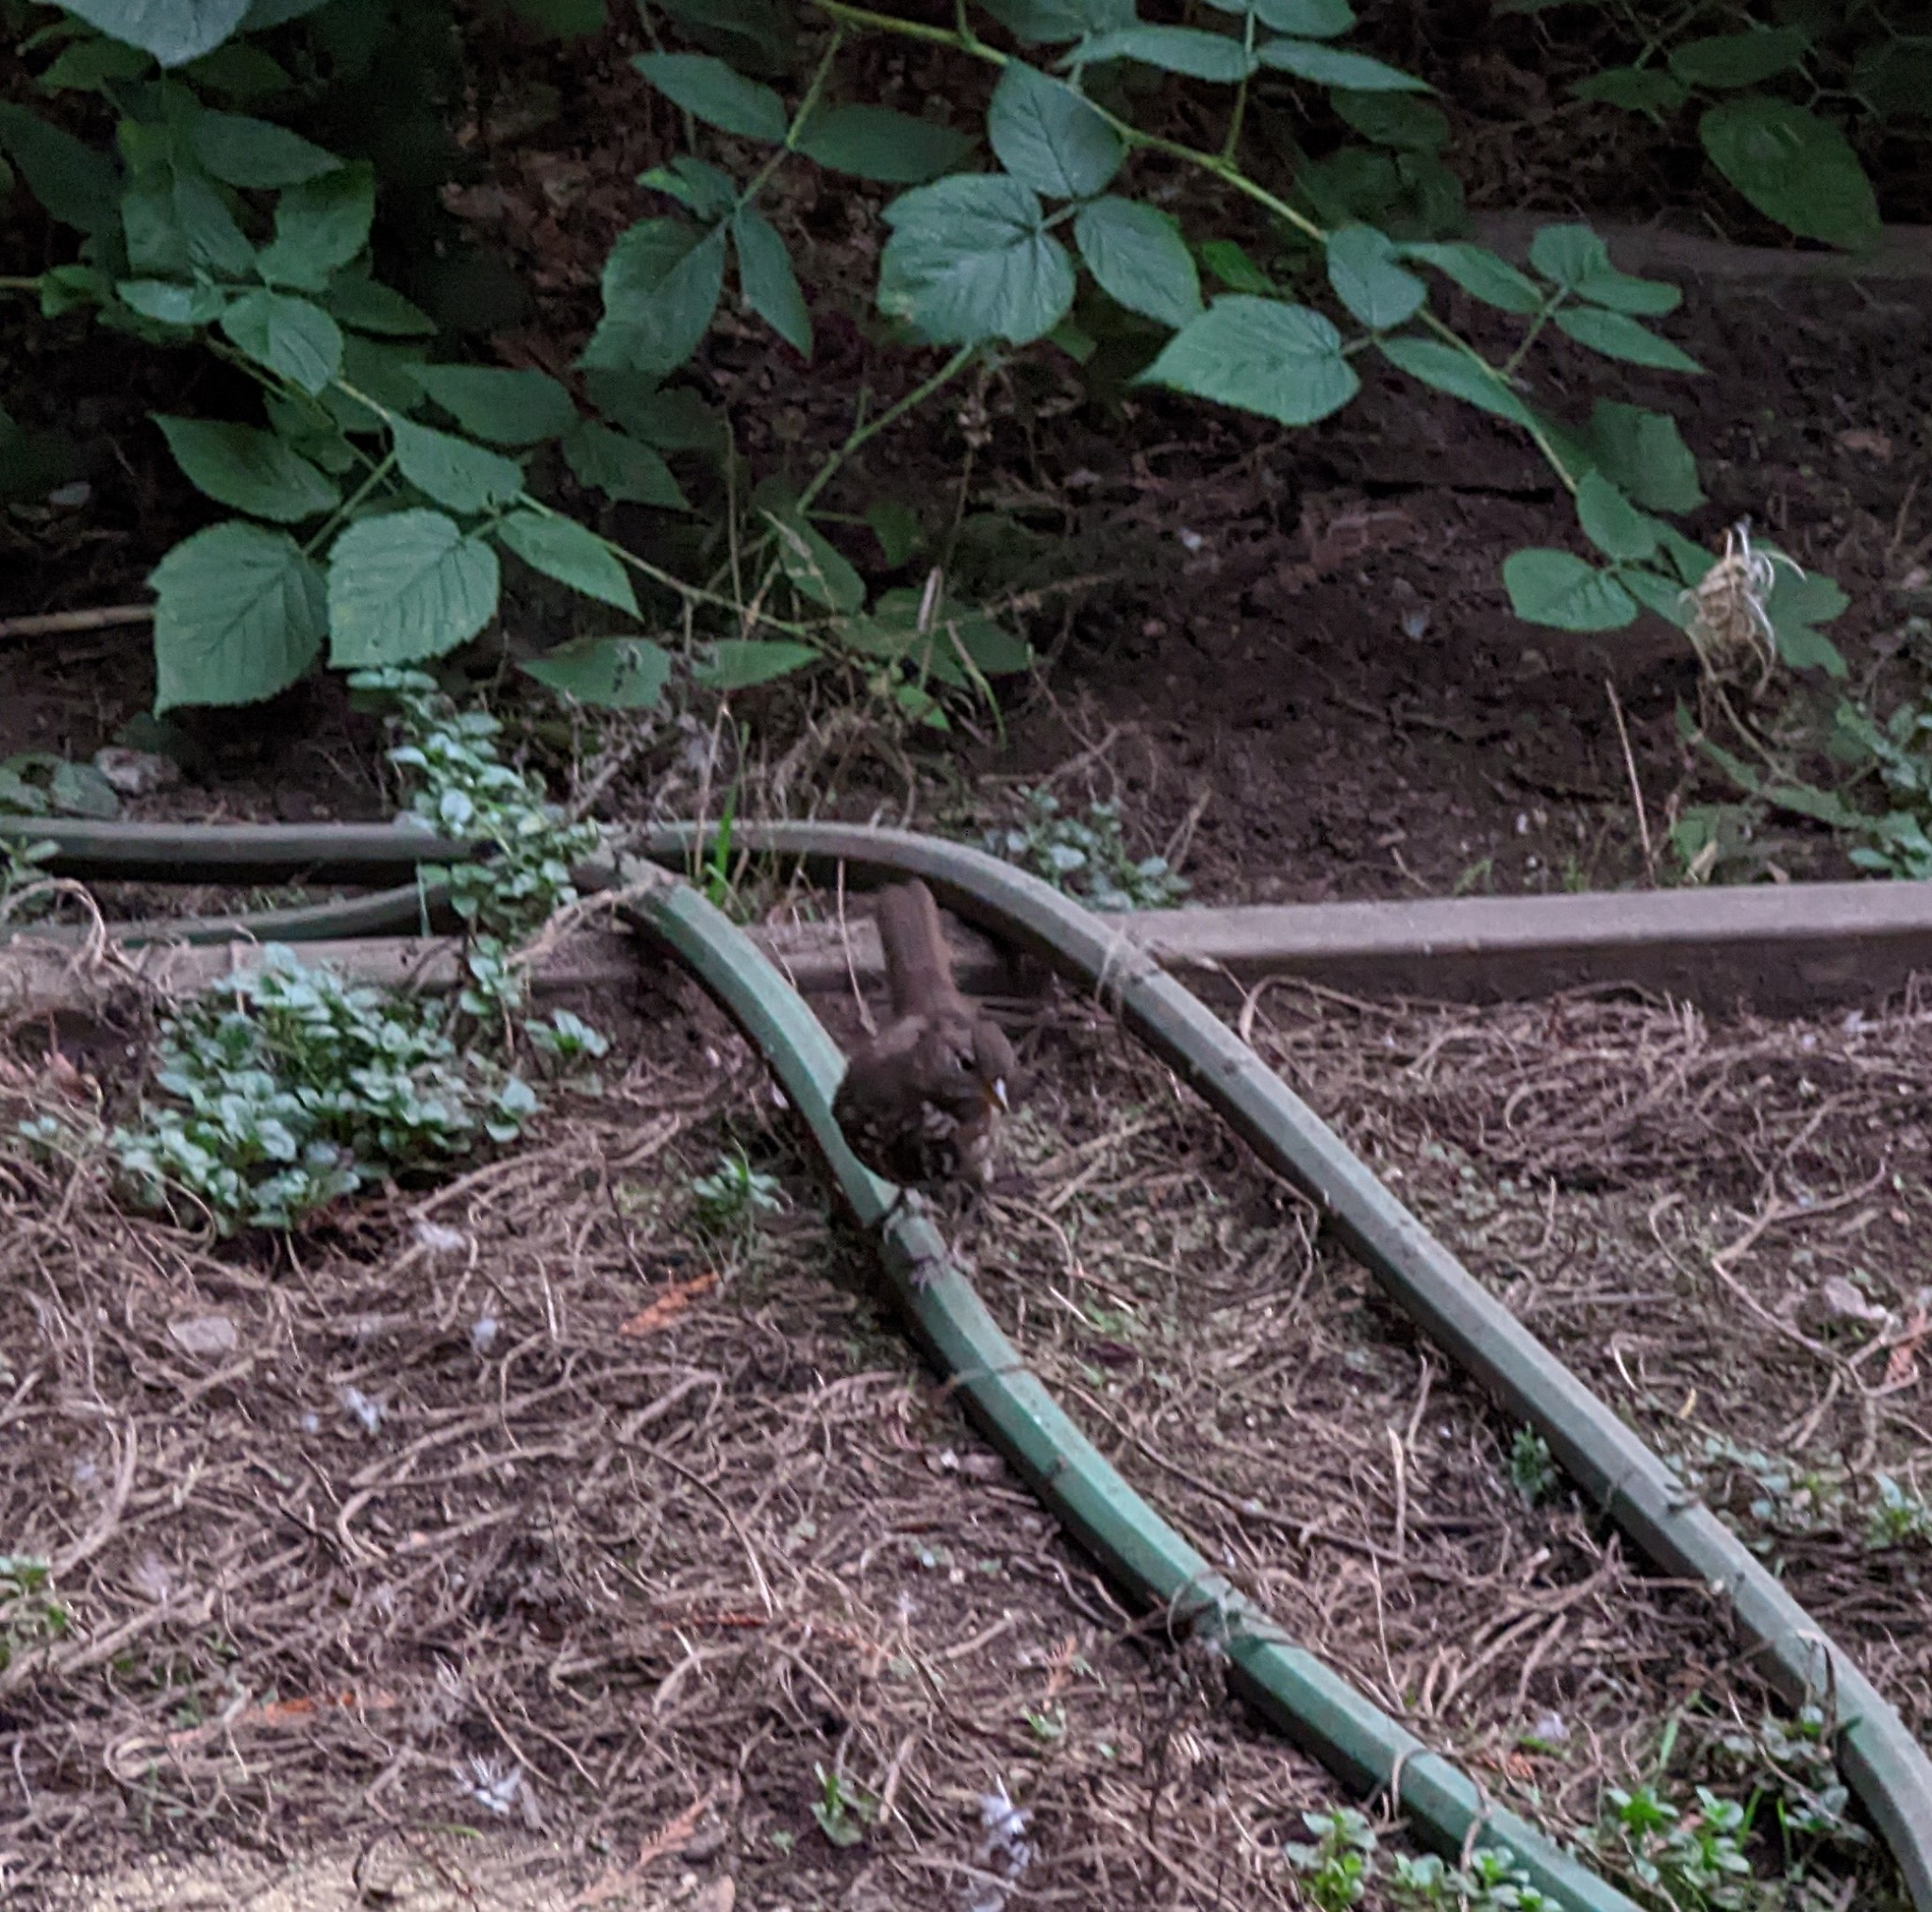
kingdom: Animalia
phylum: Chordata
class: Aves
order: Passeriformes
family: Passerellidae
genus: Passerella
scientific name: Passerella iliaca
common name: Fox sparrow
